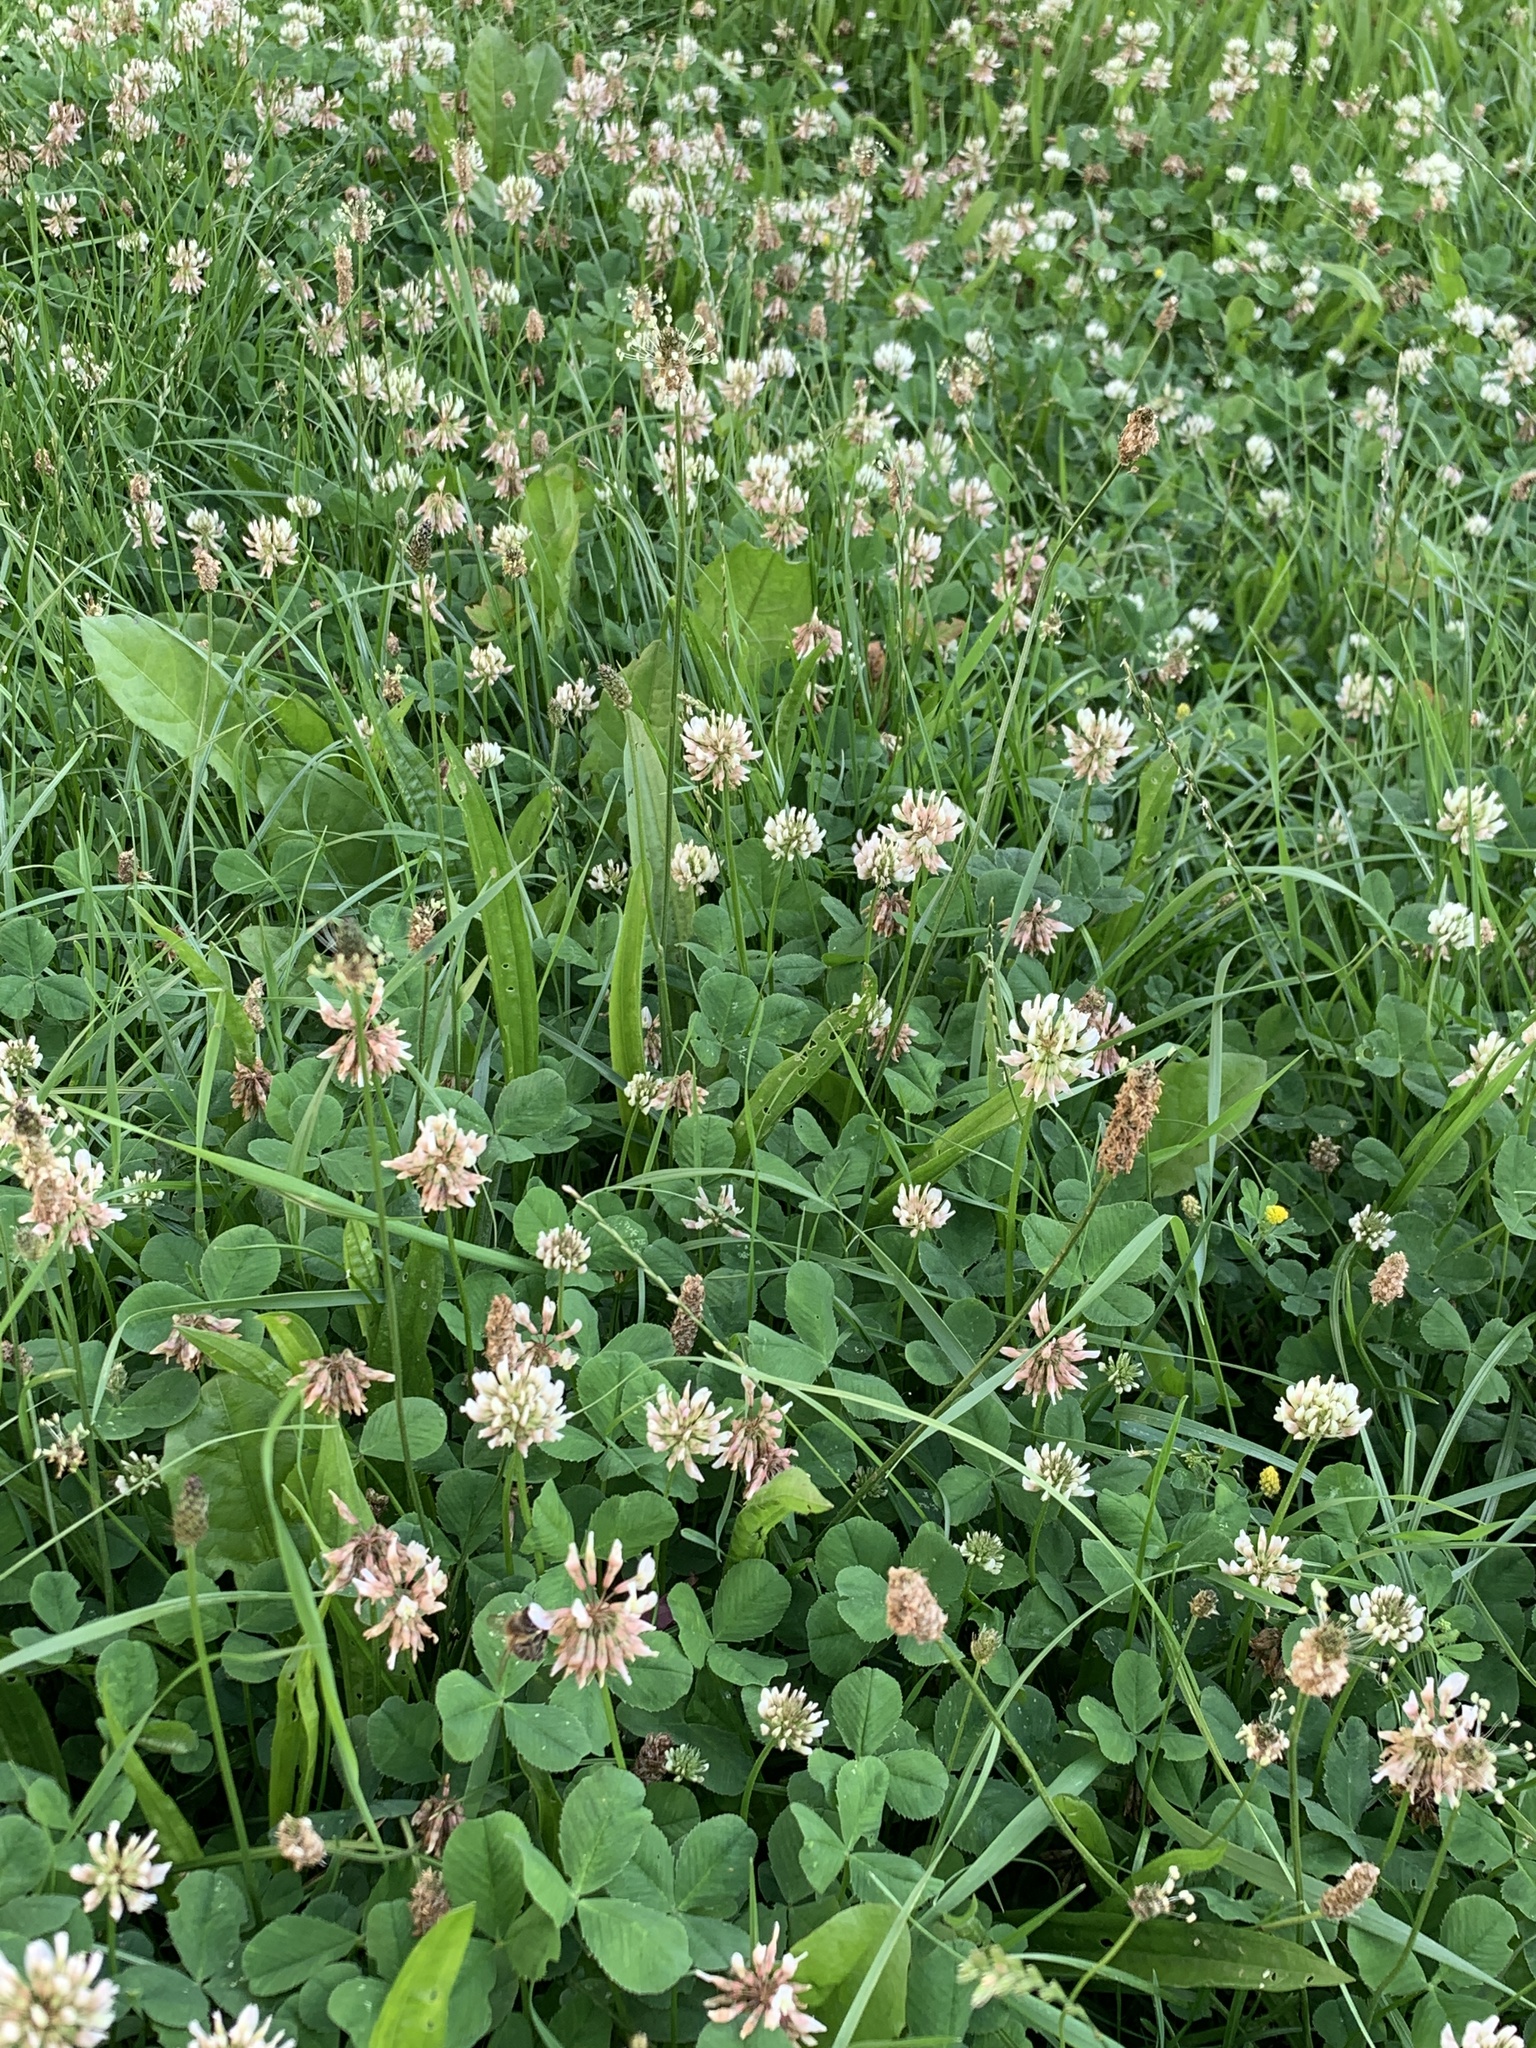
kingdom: Plantae
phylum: Tracheophyta
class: Magnoliopsida
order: Fabales
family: Fabaceae
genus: Trifolium
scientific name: Trifolium repens
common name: White clover
